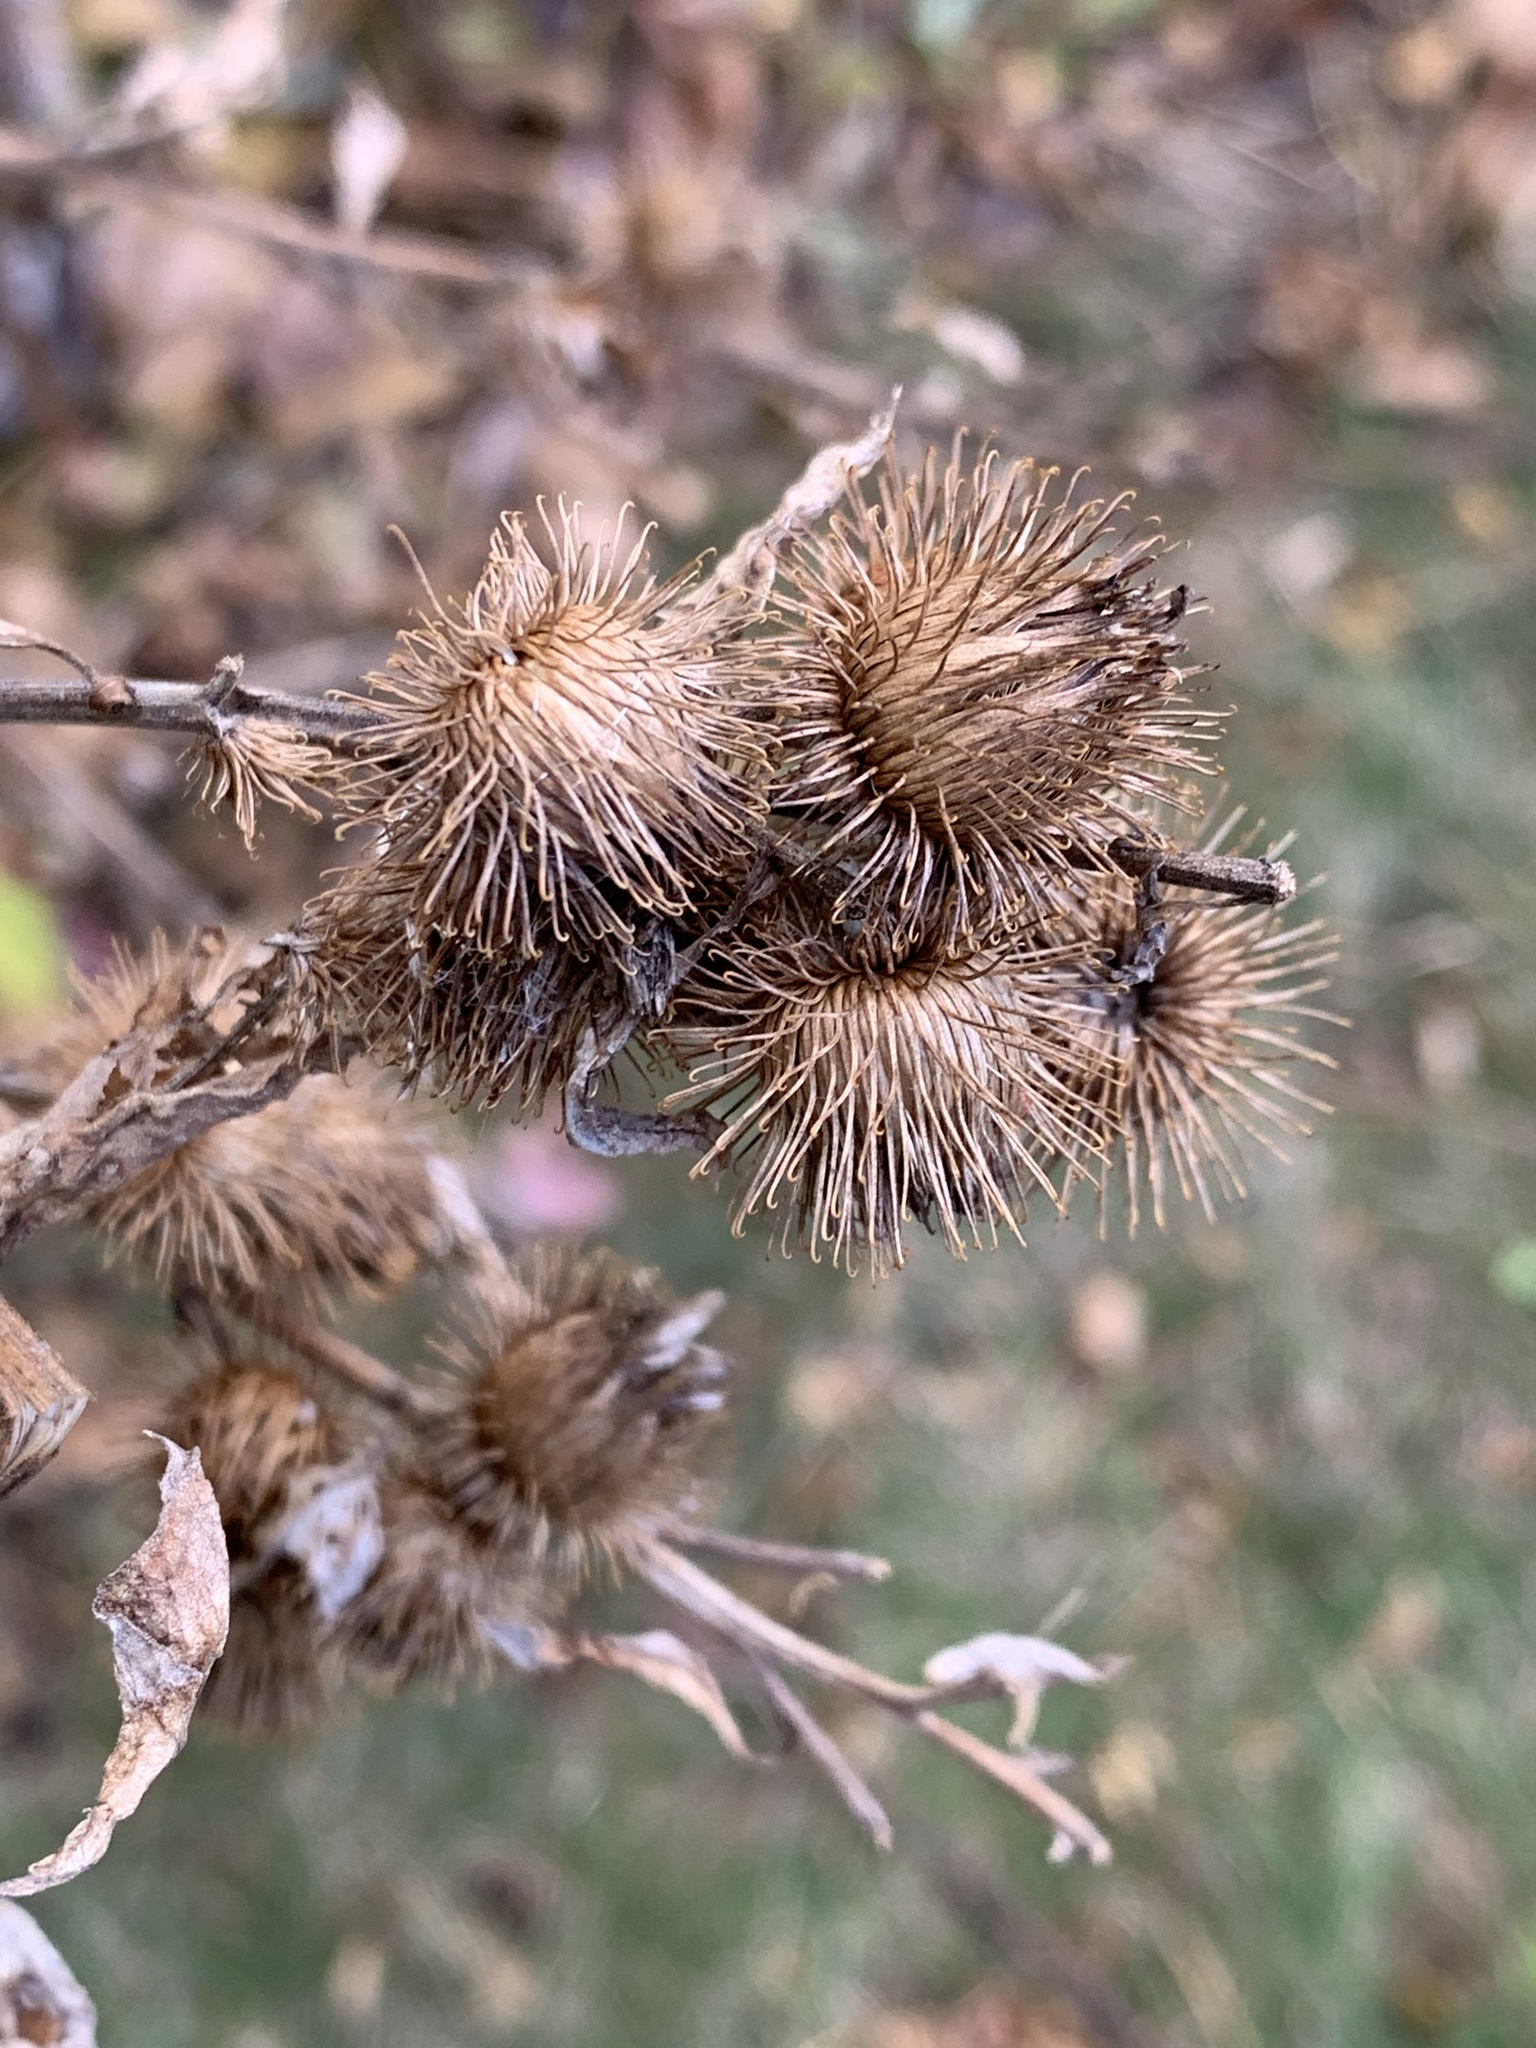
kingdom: Plantae
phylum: Tracheophyta
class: Magnoliopsida
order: Asterales
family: Asteraceae
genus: Arctium
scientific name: Arctium minus
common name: Lesser burdock
